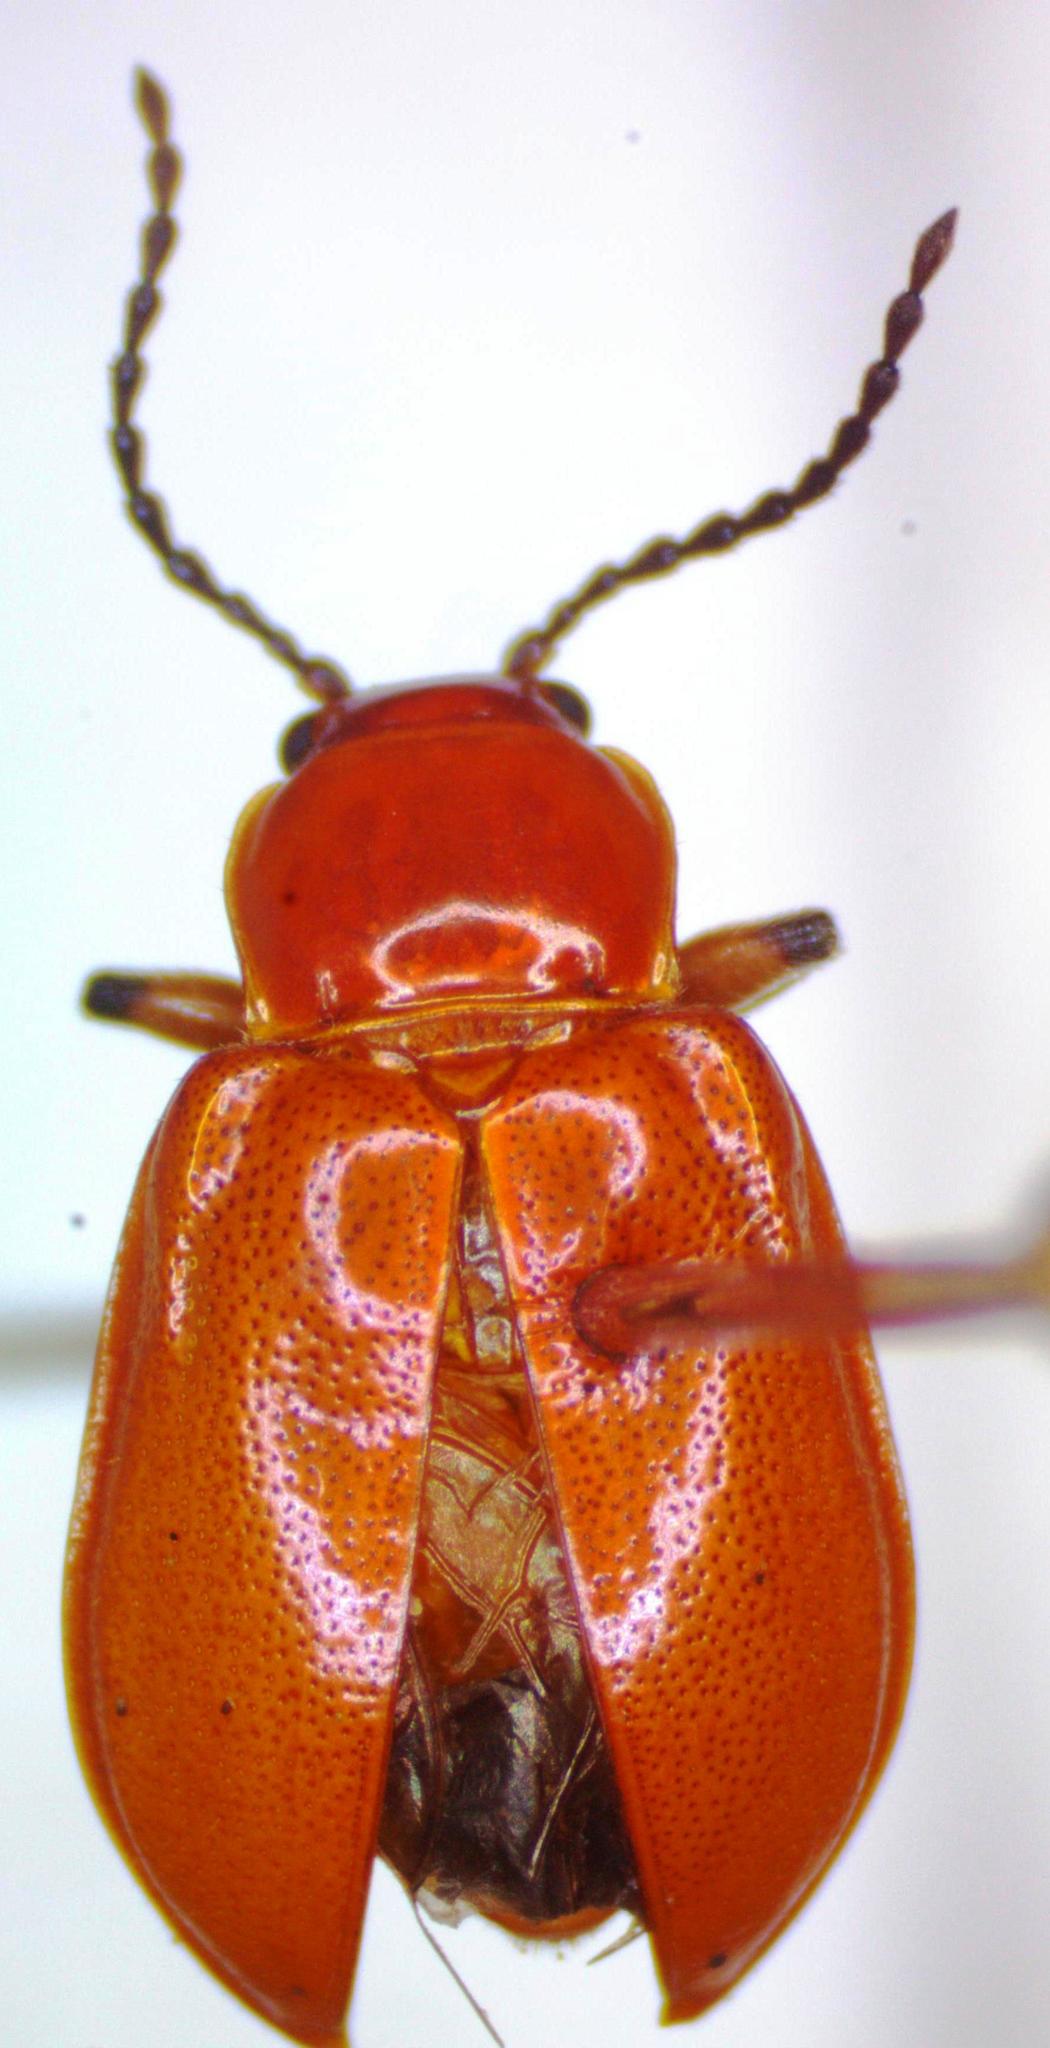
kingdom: Animalia
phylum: Arthropoda
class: Insecta
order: Coleoptera
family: Orsodacnidae
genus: Aulacoscelis
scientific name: Aulacoscelis
